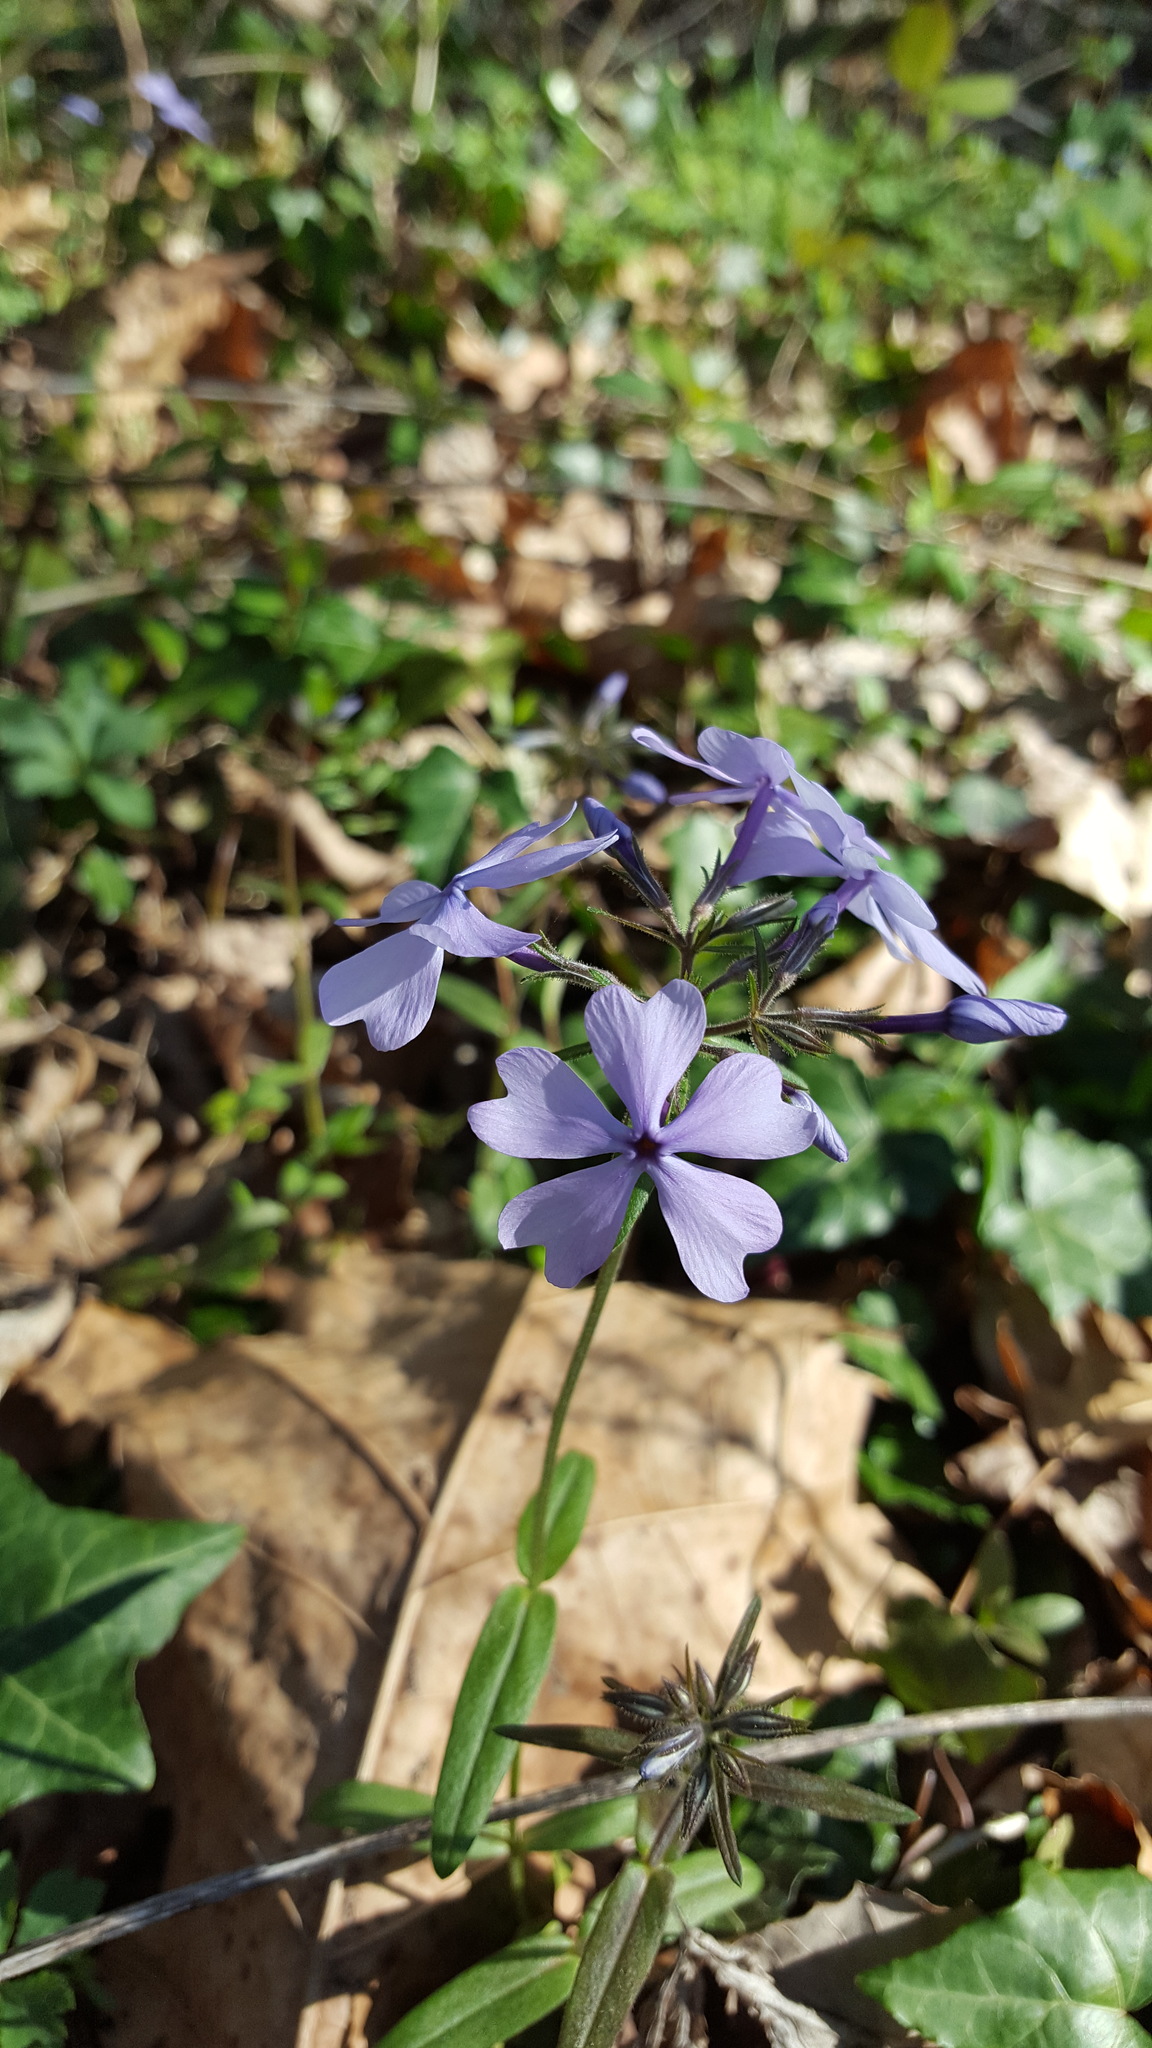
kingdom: Plantae
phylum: Tracheophyta
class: Magnoliopsida
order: Ericales
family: Polemoniaceae
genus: Phlox
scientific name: Phlox divaricata
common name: Blue phlox
